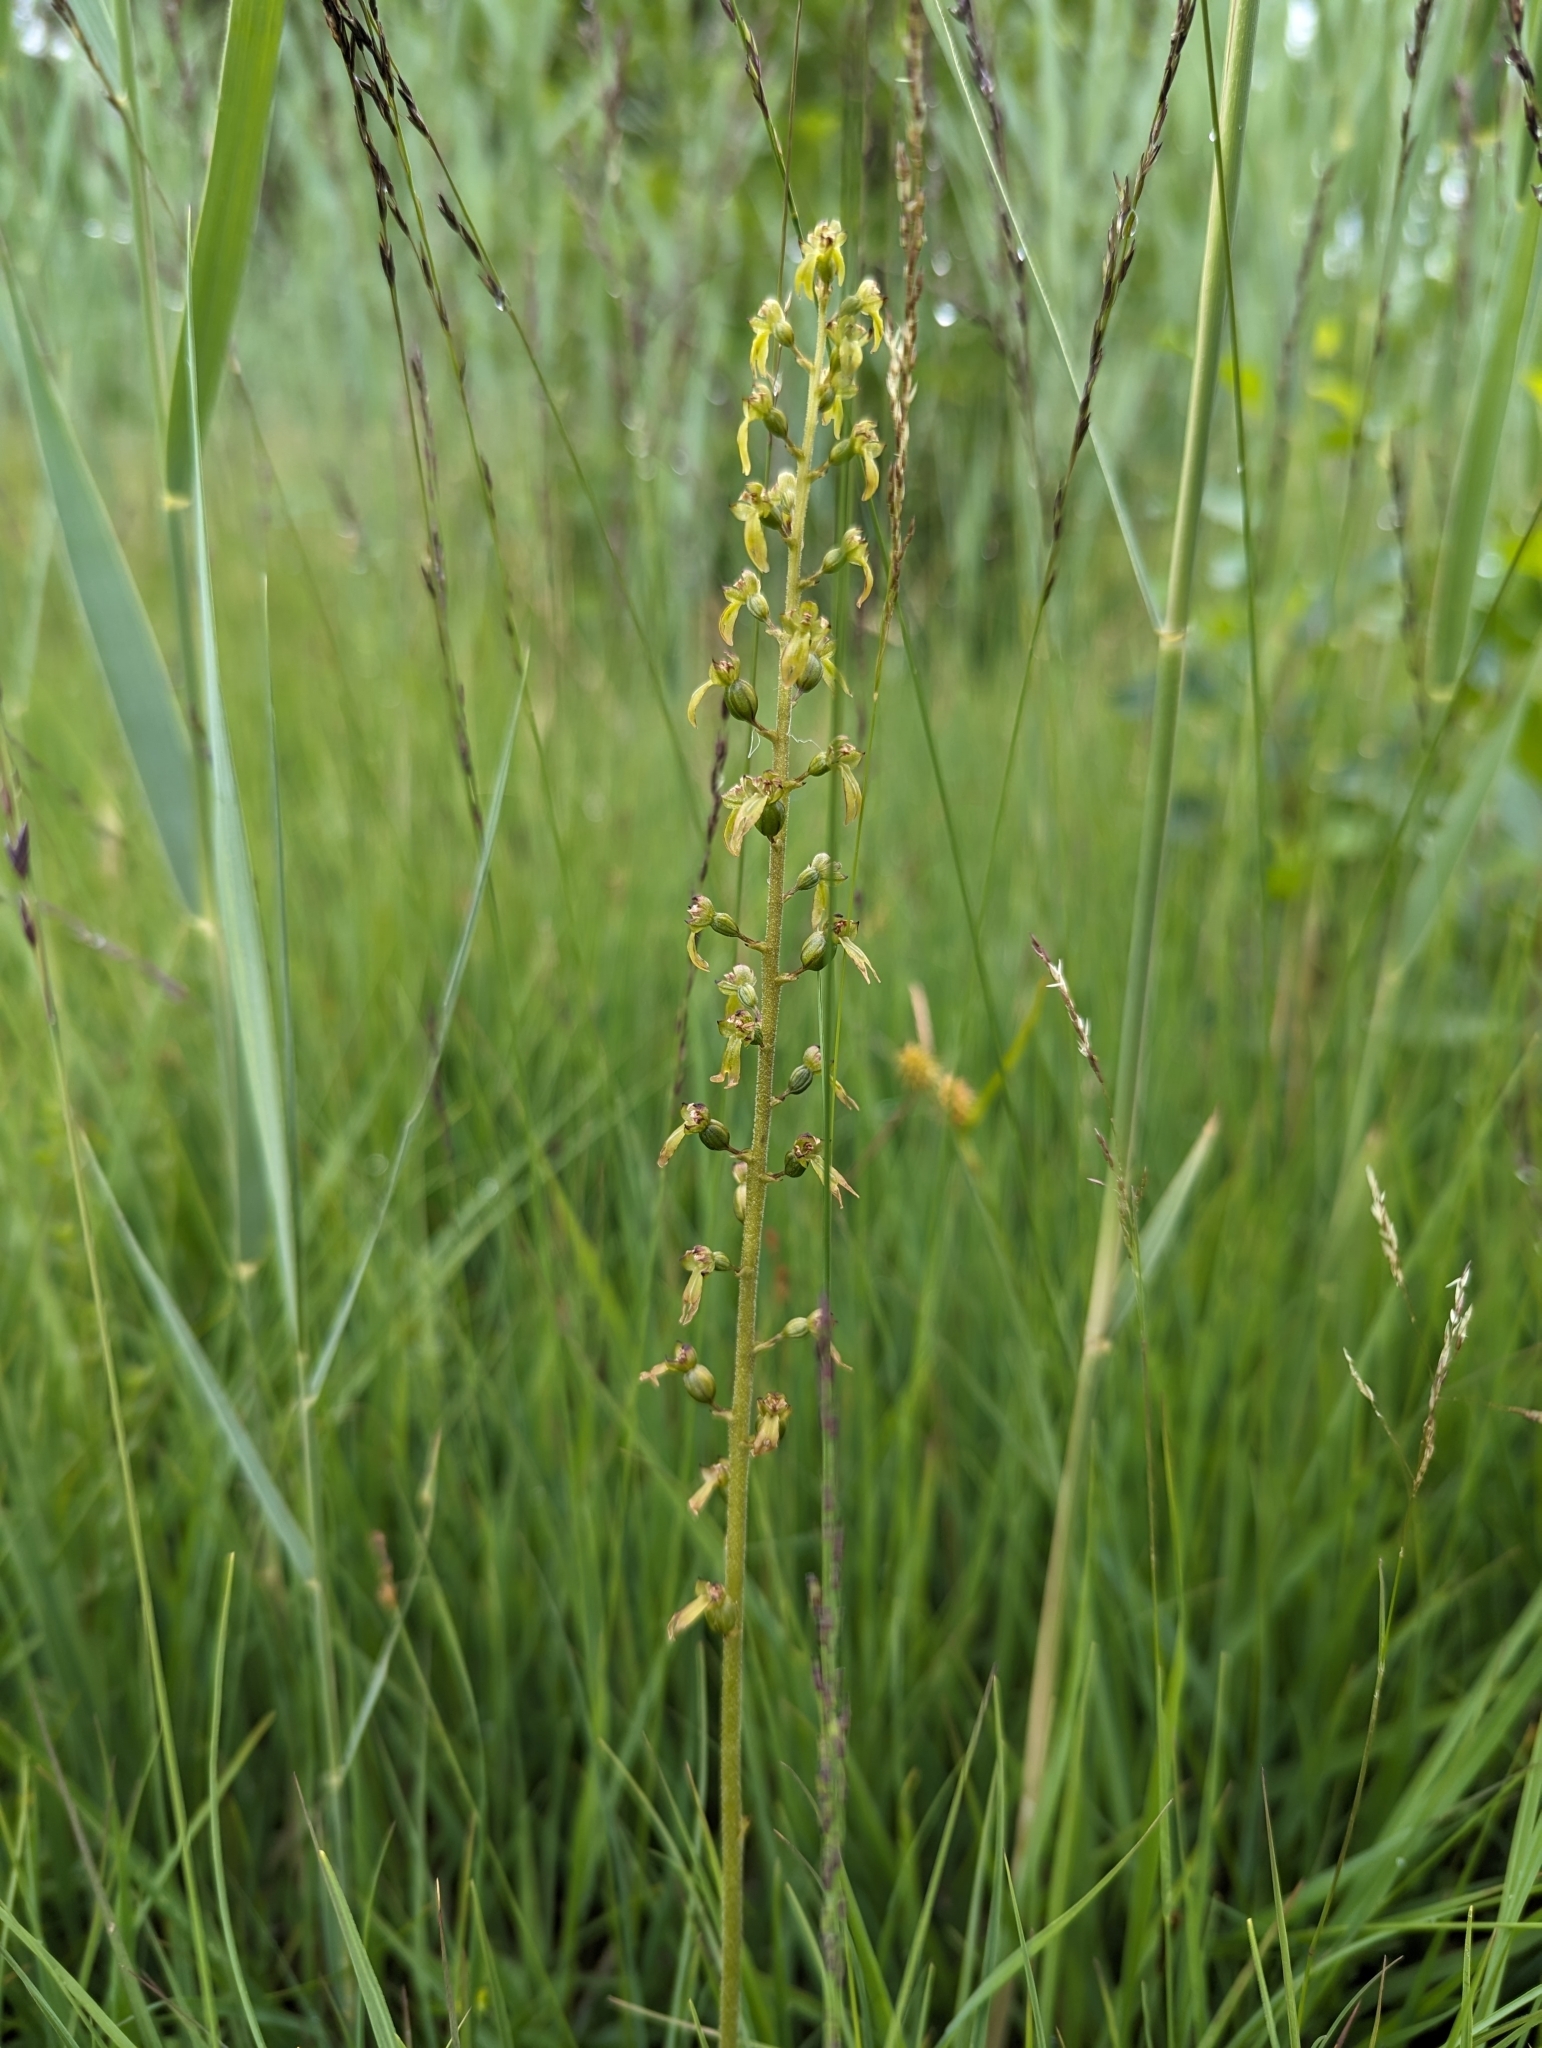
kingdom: Plantae
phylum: Tracheophyta
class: Liliopsida
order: Asparagales
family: Orchidaceae
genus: Neottia
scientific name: Neottia ovata
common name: Common twayblade
